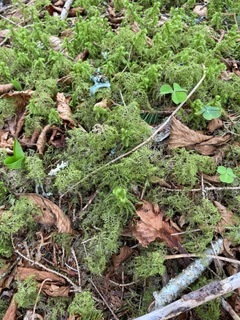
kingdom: Plantae
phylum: Bryophyta
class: Bryopsida
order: Hypnales
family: Hylocomiaceae
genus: Hylocomium
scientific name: Hylocomium splendens
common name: Stairstep moss
